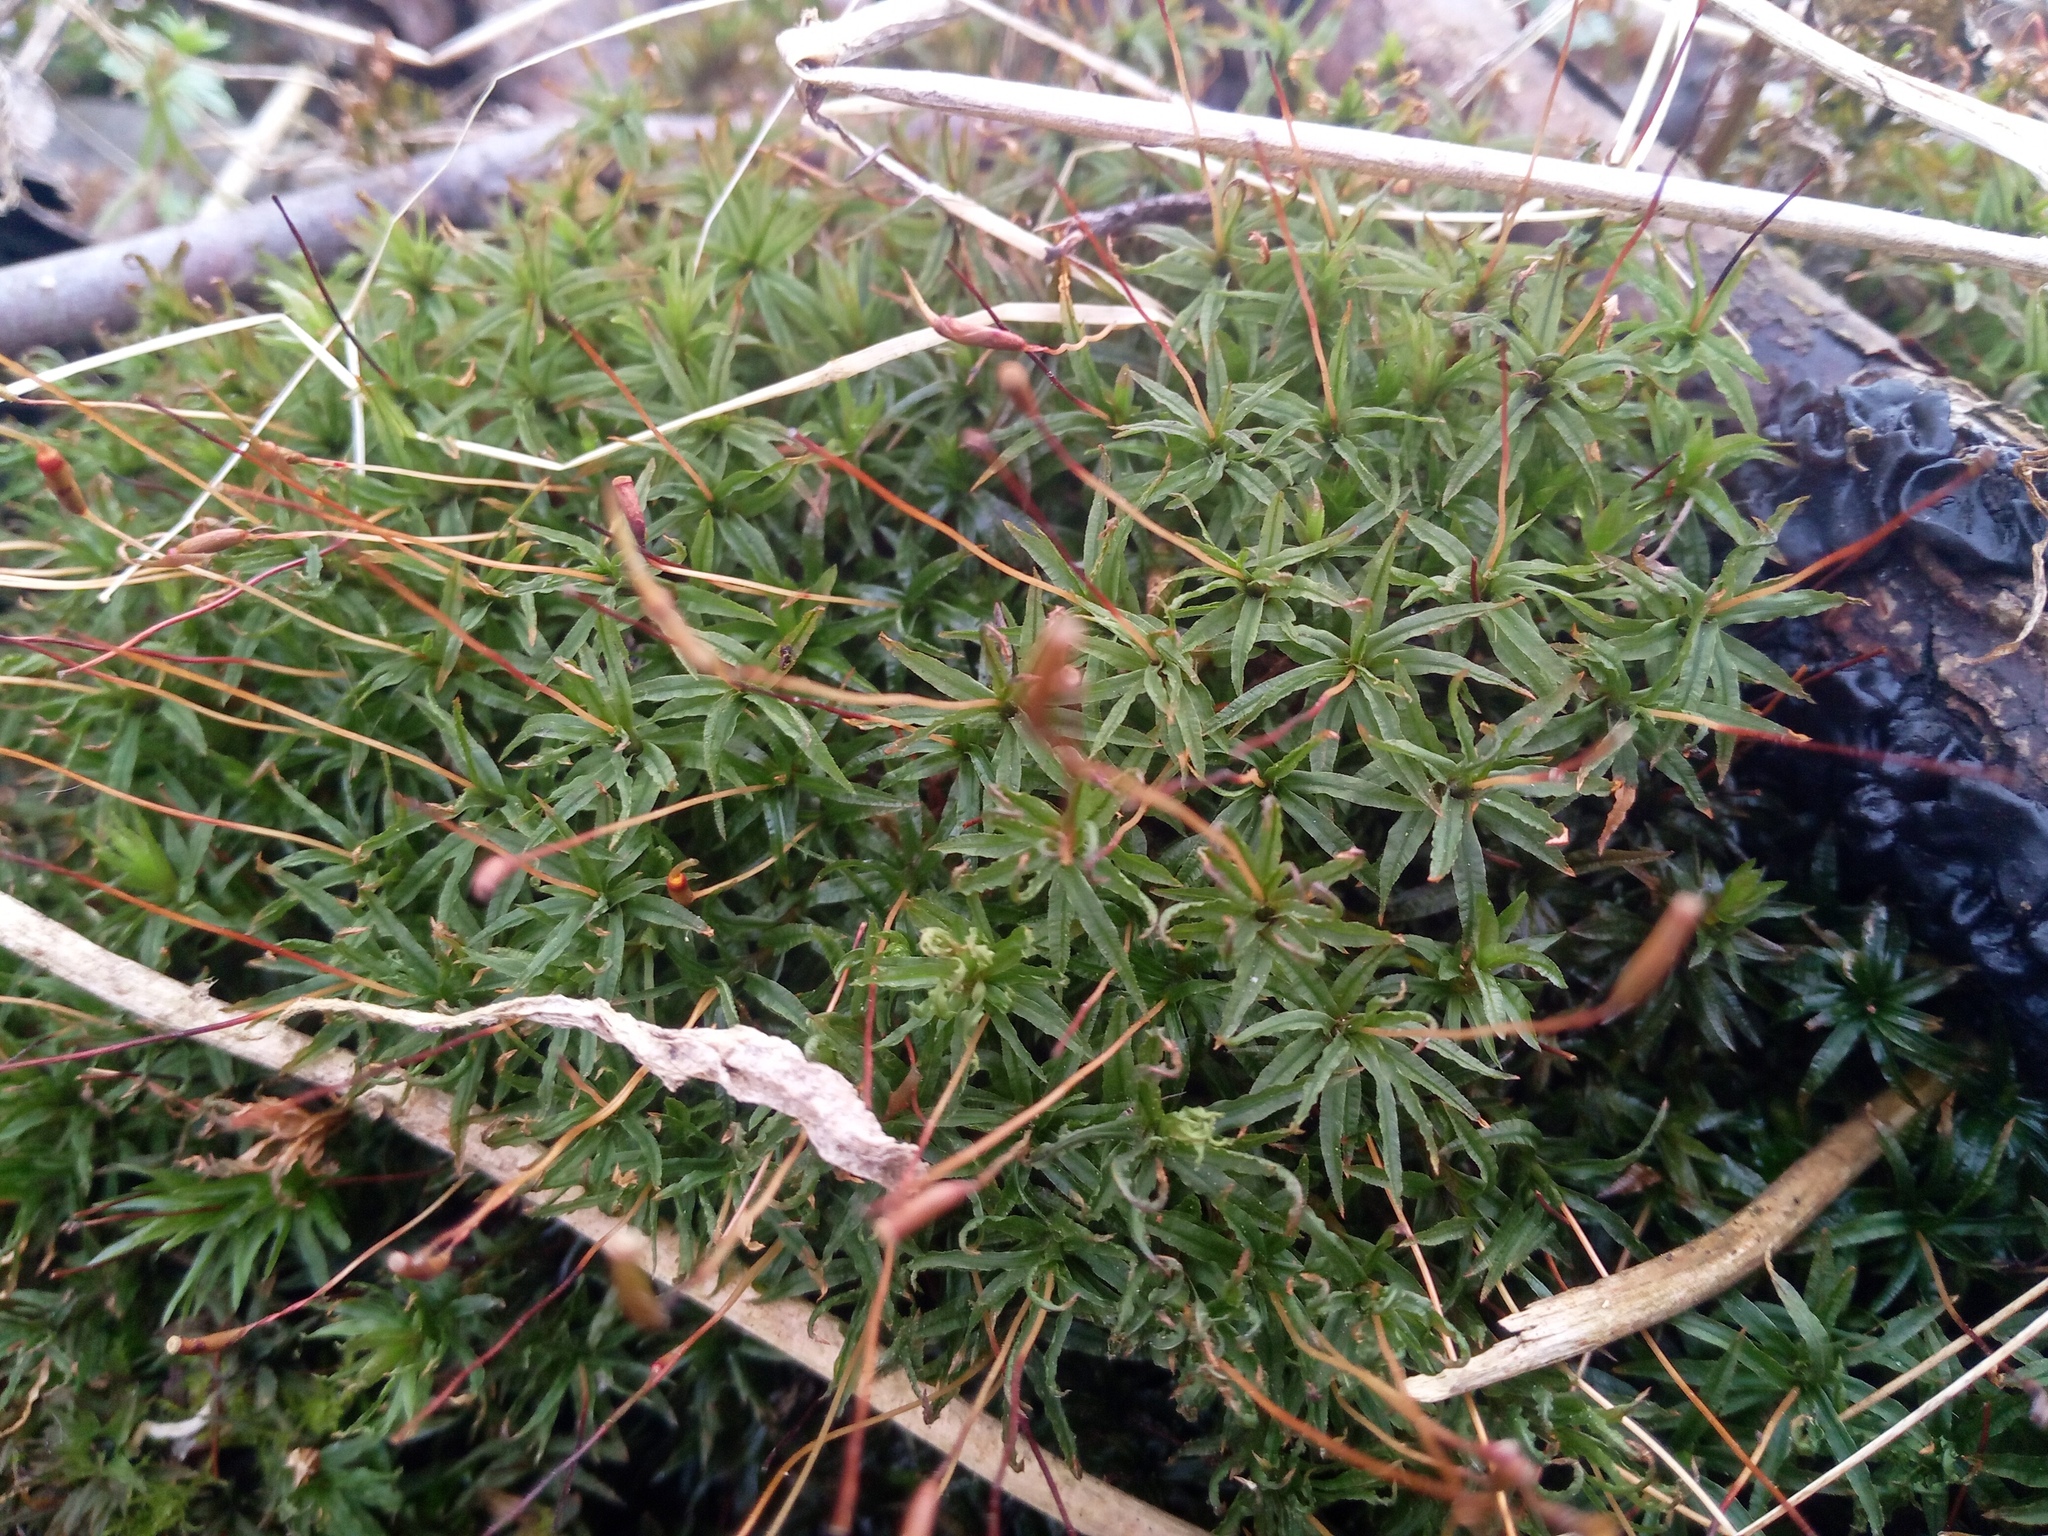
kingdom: Plantae
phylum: Bryophyta
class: Polytrichopsida
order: Polytrichales
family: Polytrichaceae
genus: Atrichum
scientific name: Atrichum undulatum
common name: Common smoothcap
